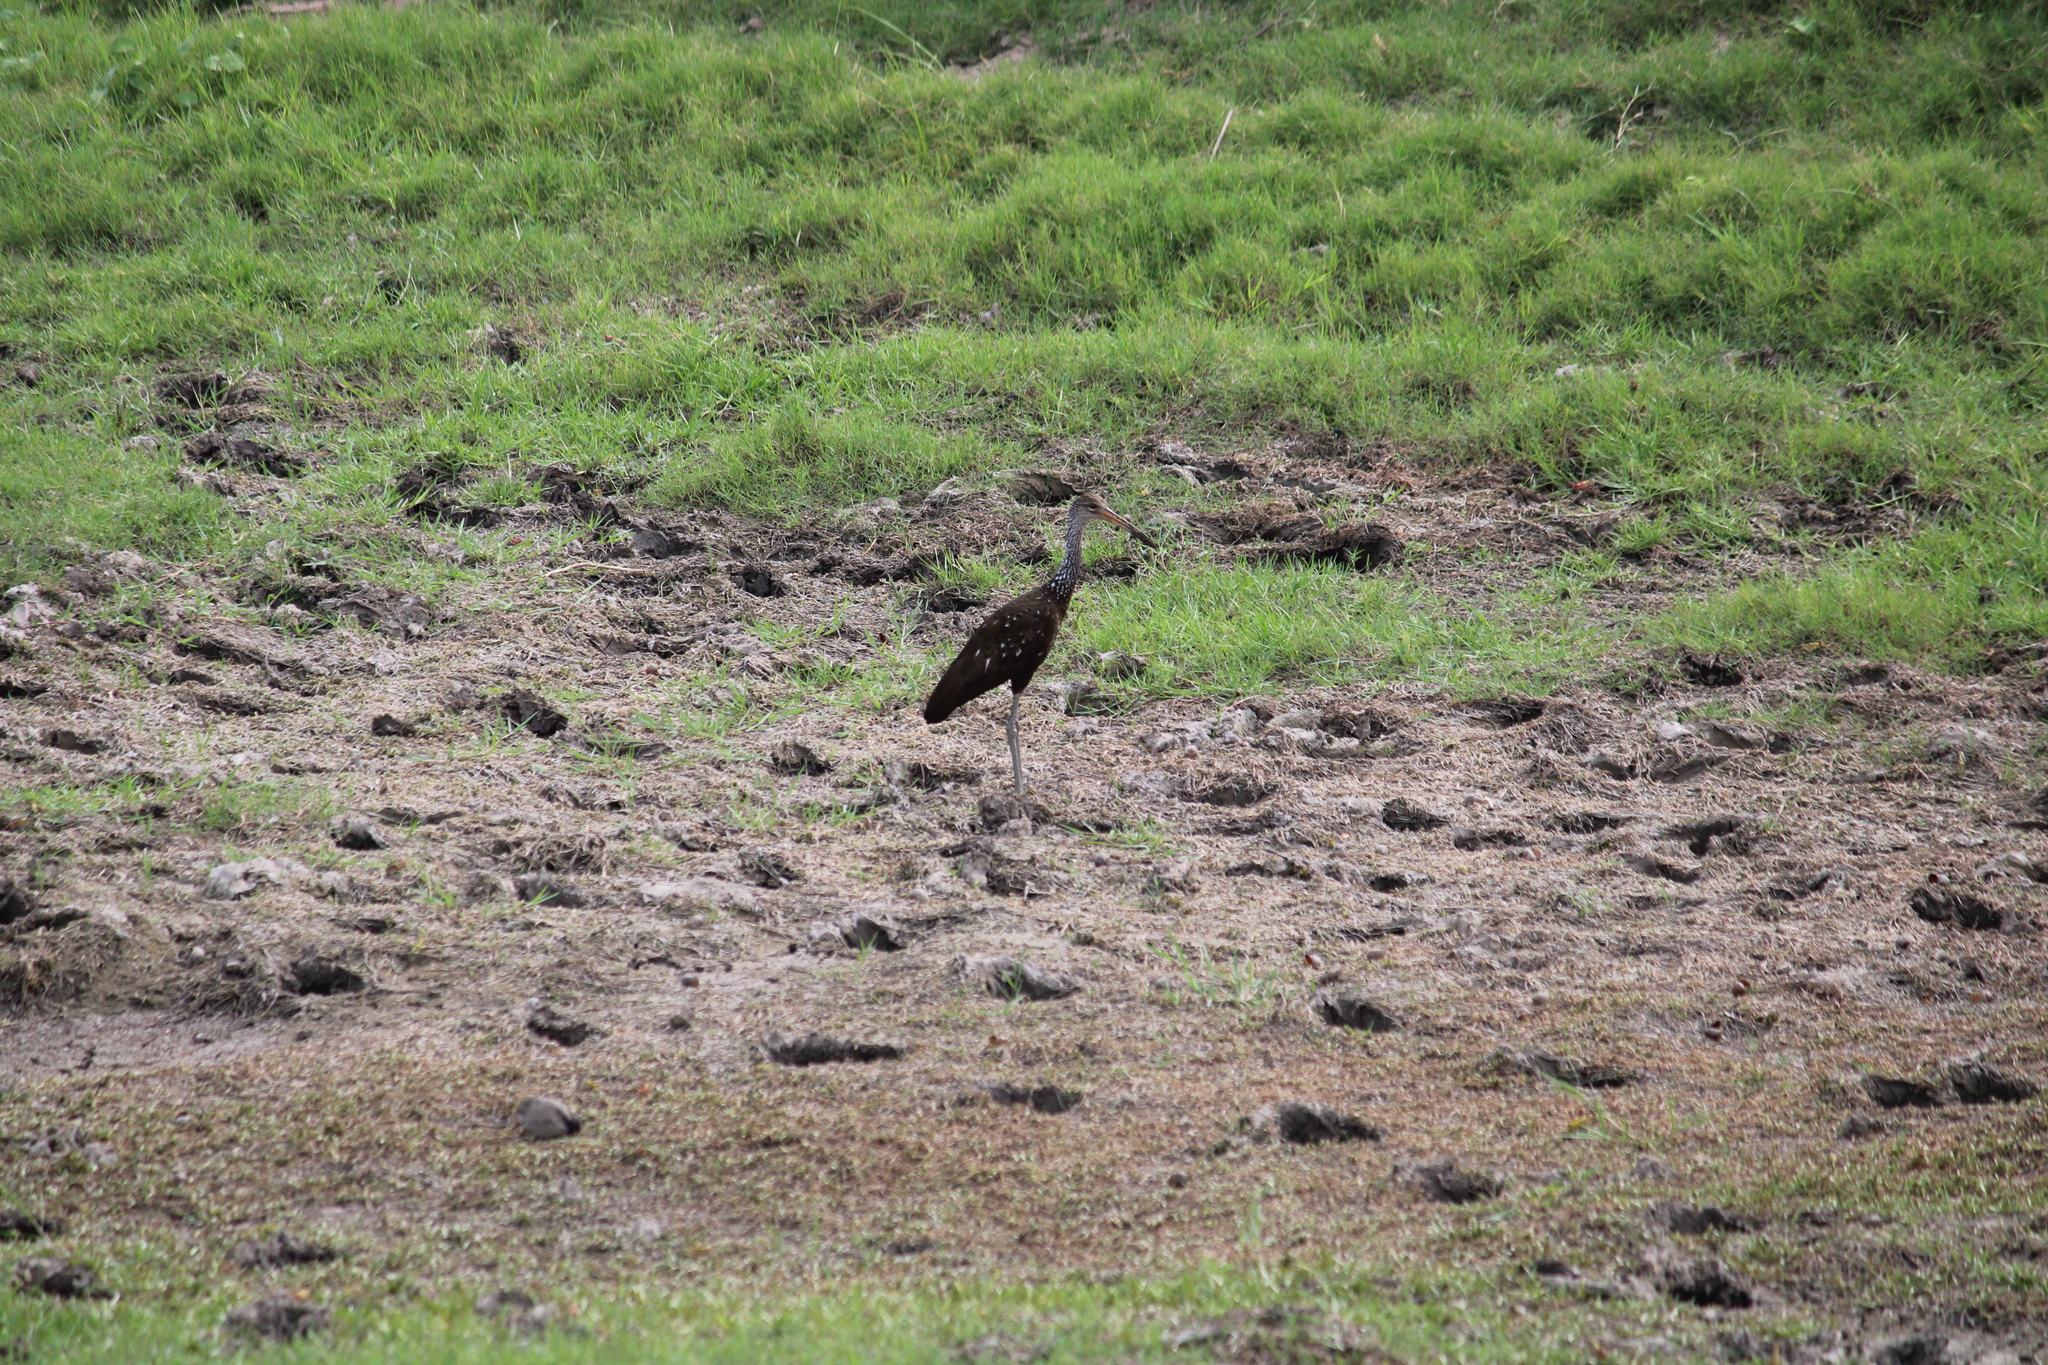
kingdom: Animalia
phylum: Chordata
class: Aves
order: Gruiformes
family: Aramidae
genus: Aramus
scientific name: Aramus guarauna
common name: Limpkin
